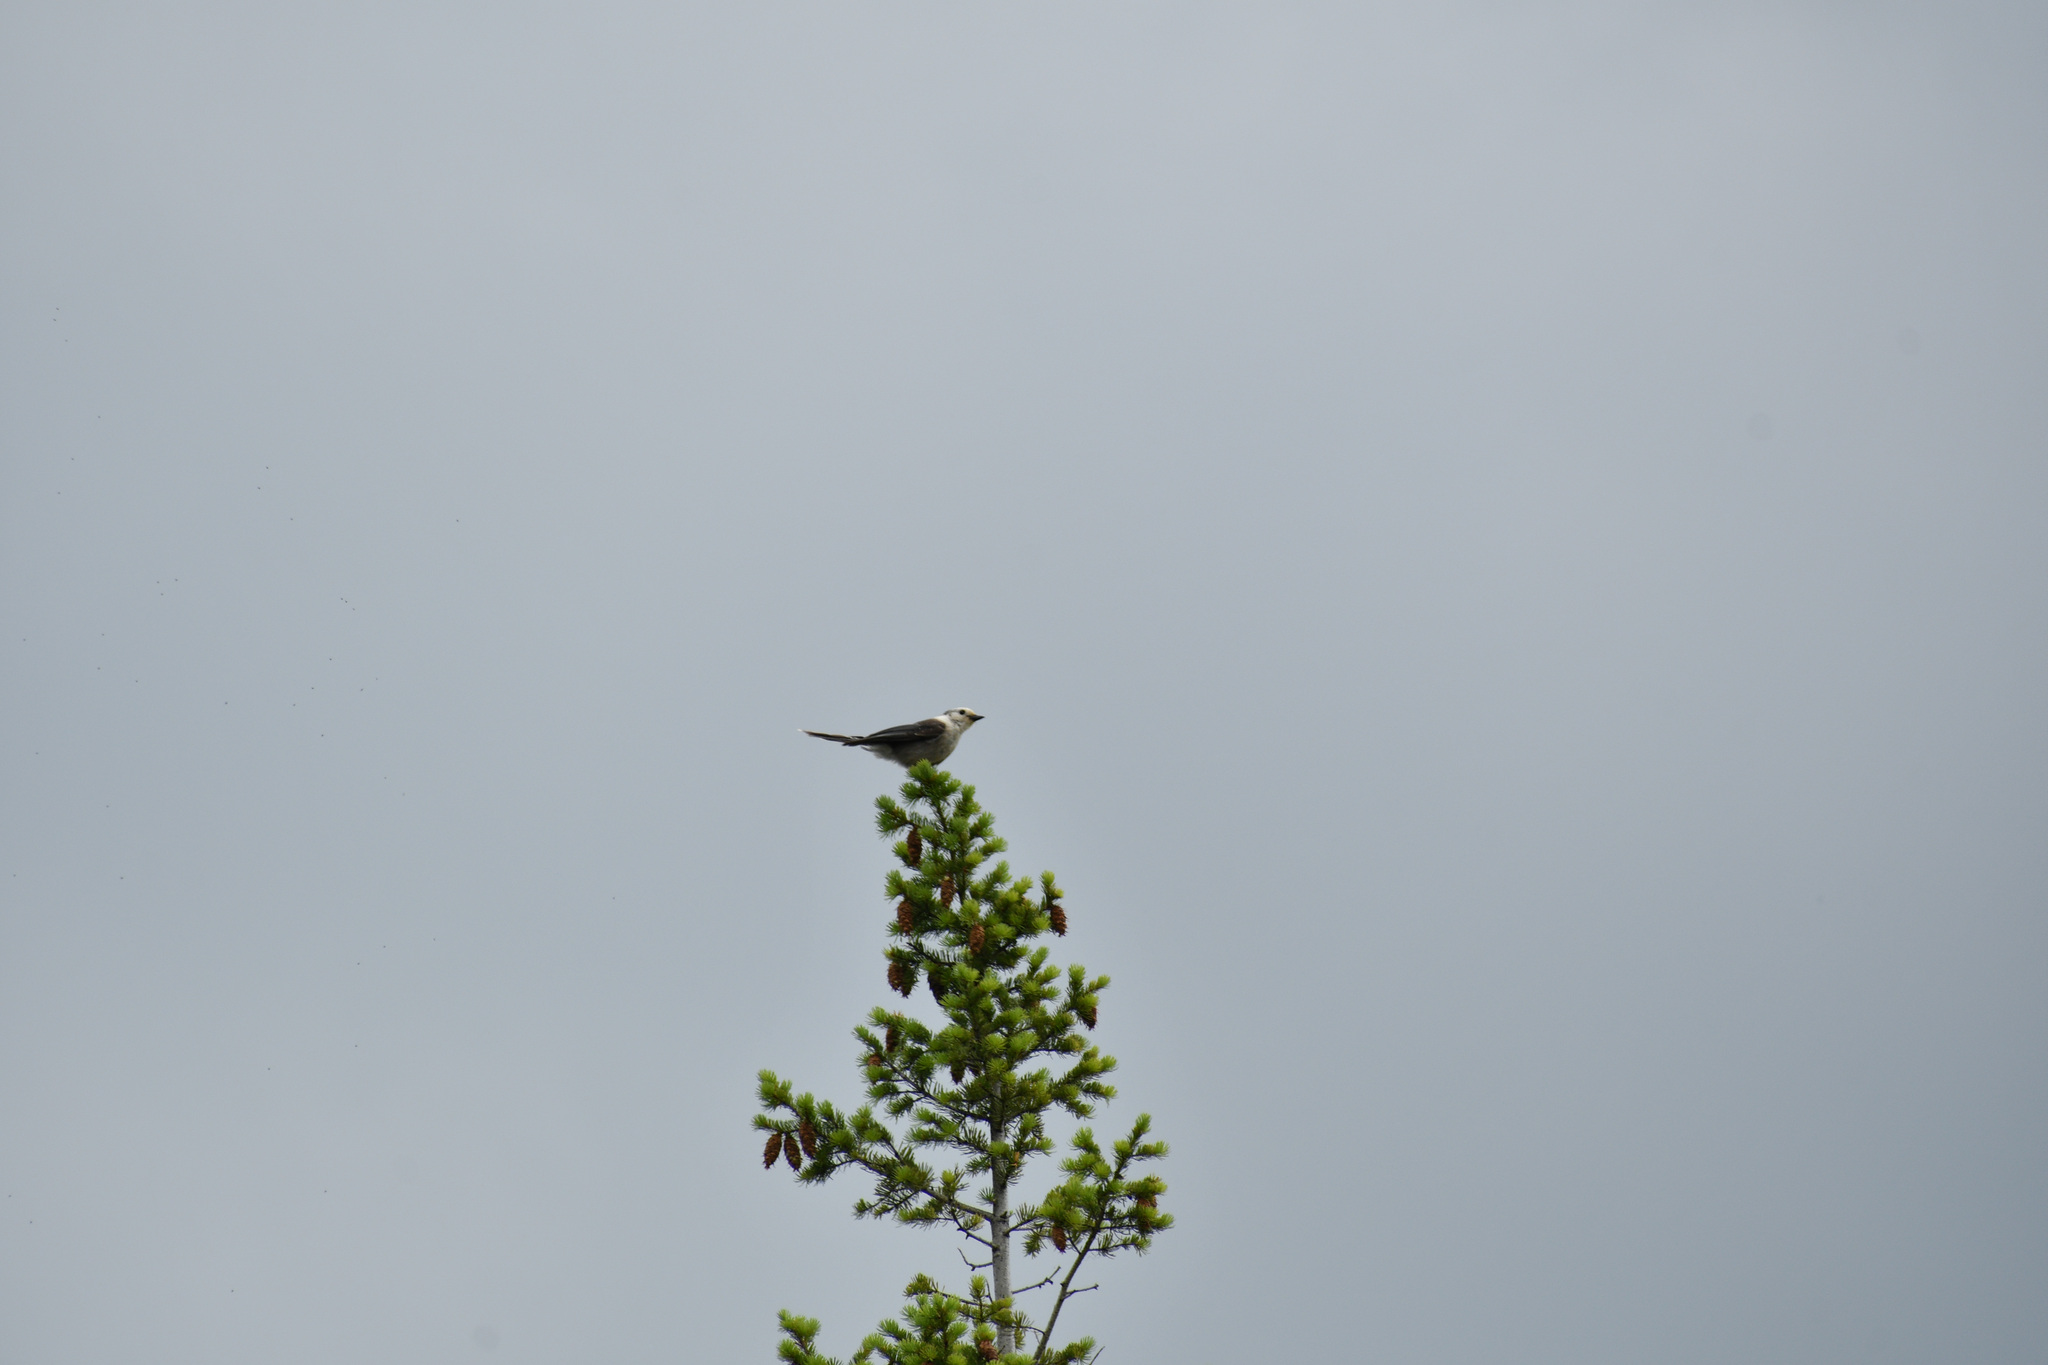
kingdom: Animalia
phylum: Chordata
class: Aves
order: Passeriformes
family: Corvidae
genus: Perisoreus
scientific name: Perisoreus canadensis
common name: Gray jay
